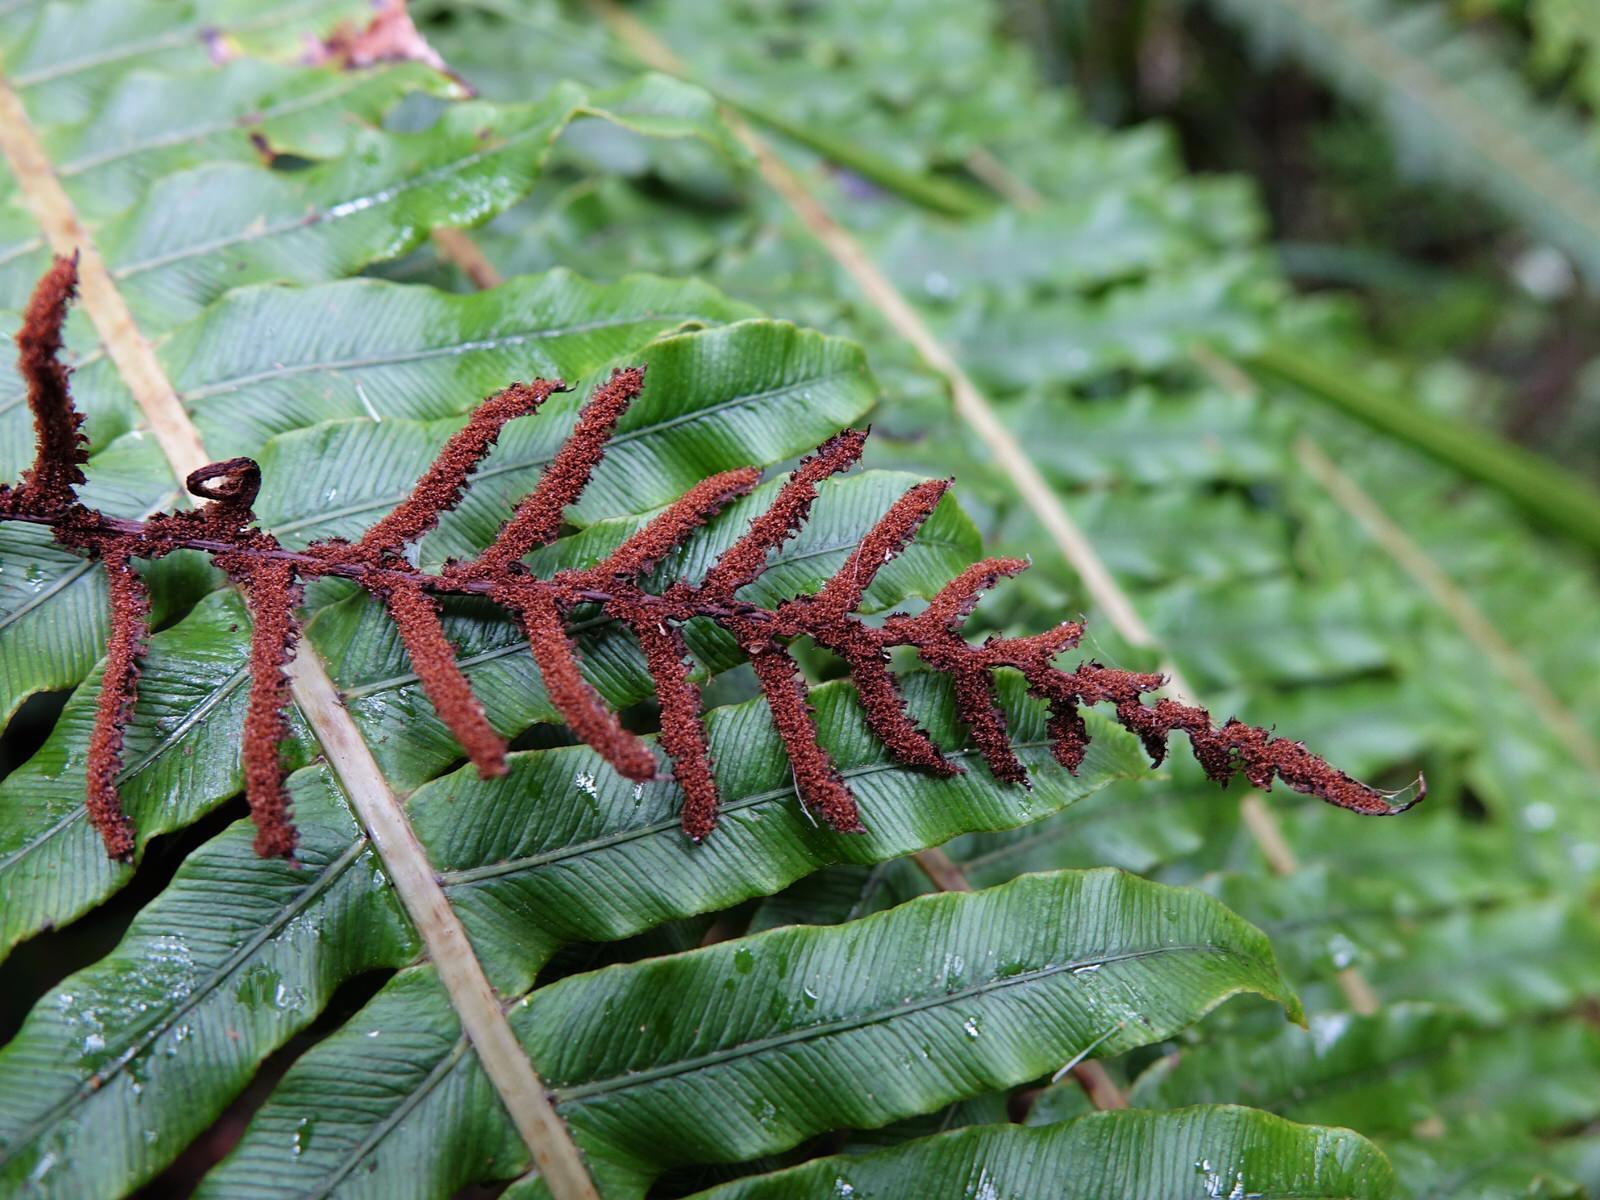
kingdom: Plantae
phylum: Tracheophyta
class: Polypodiopsida
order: Polypodiales
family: Blechnaceae
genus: Lomaria
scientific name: Lomaria discolor
